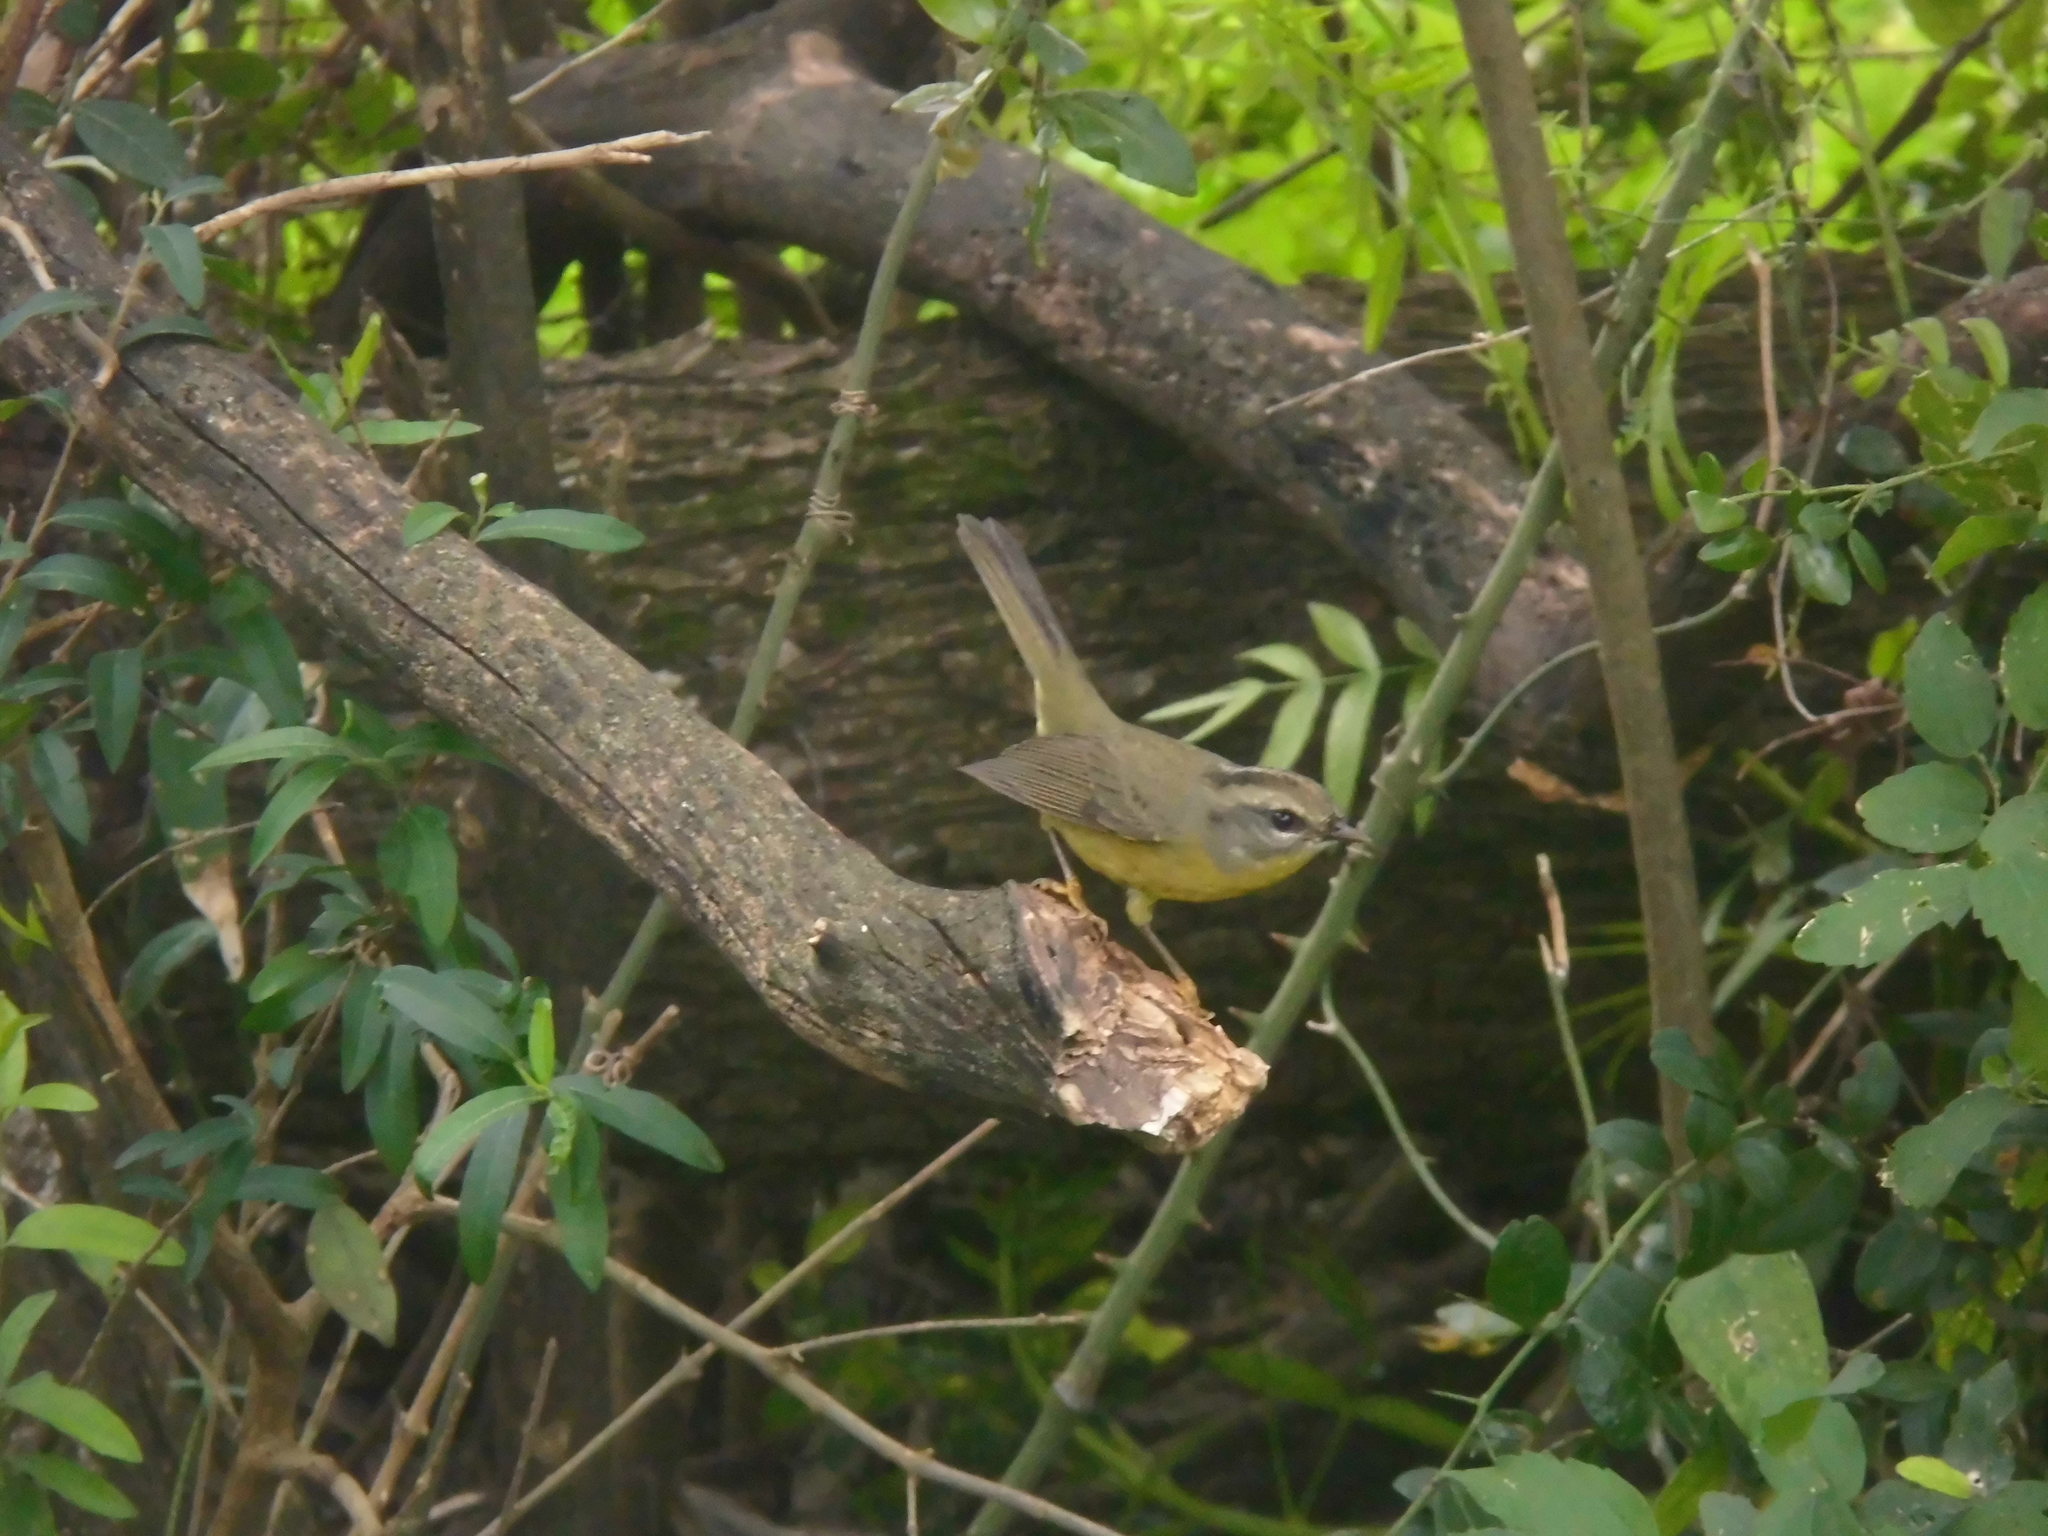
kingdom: Animalia
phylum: Chordata
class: Aves
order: Passeriformes
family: Parulidae
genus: Basileuterus
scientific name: Basileuterus culicivorus
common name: Golden-crowned warbler
